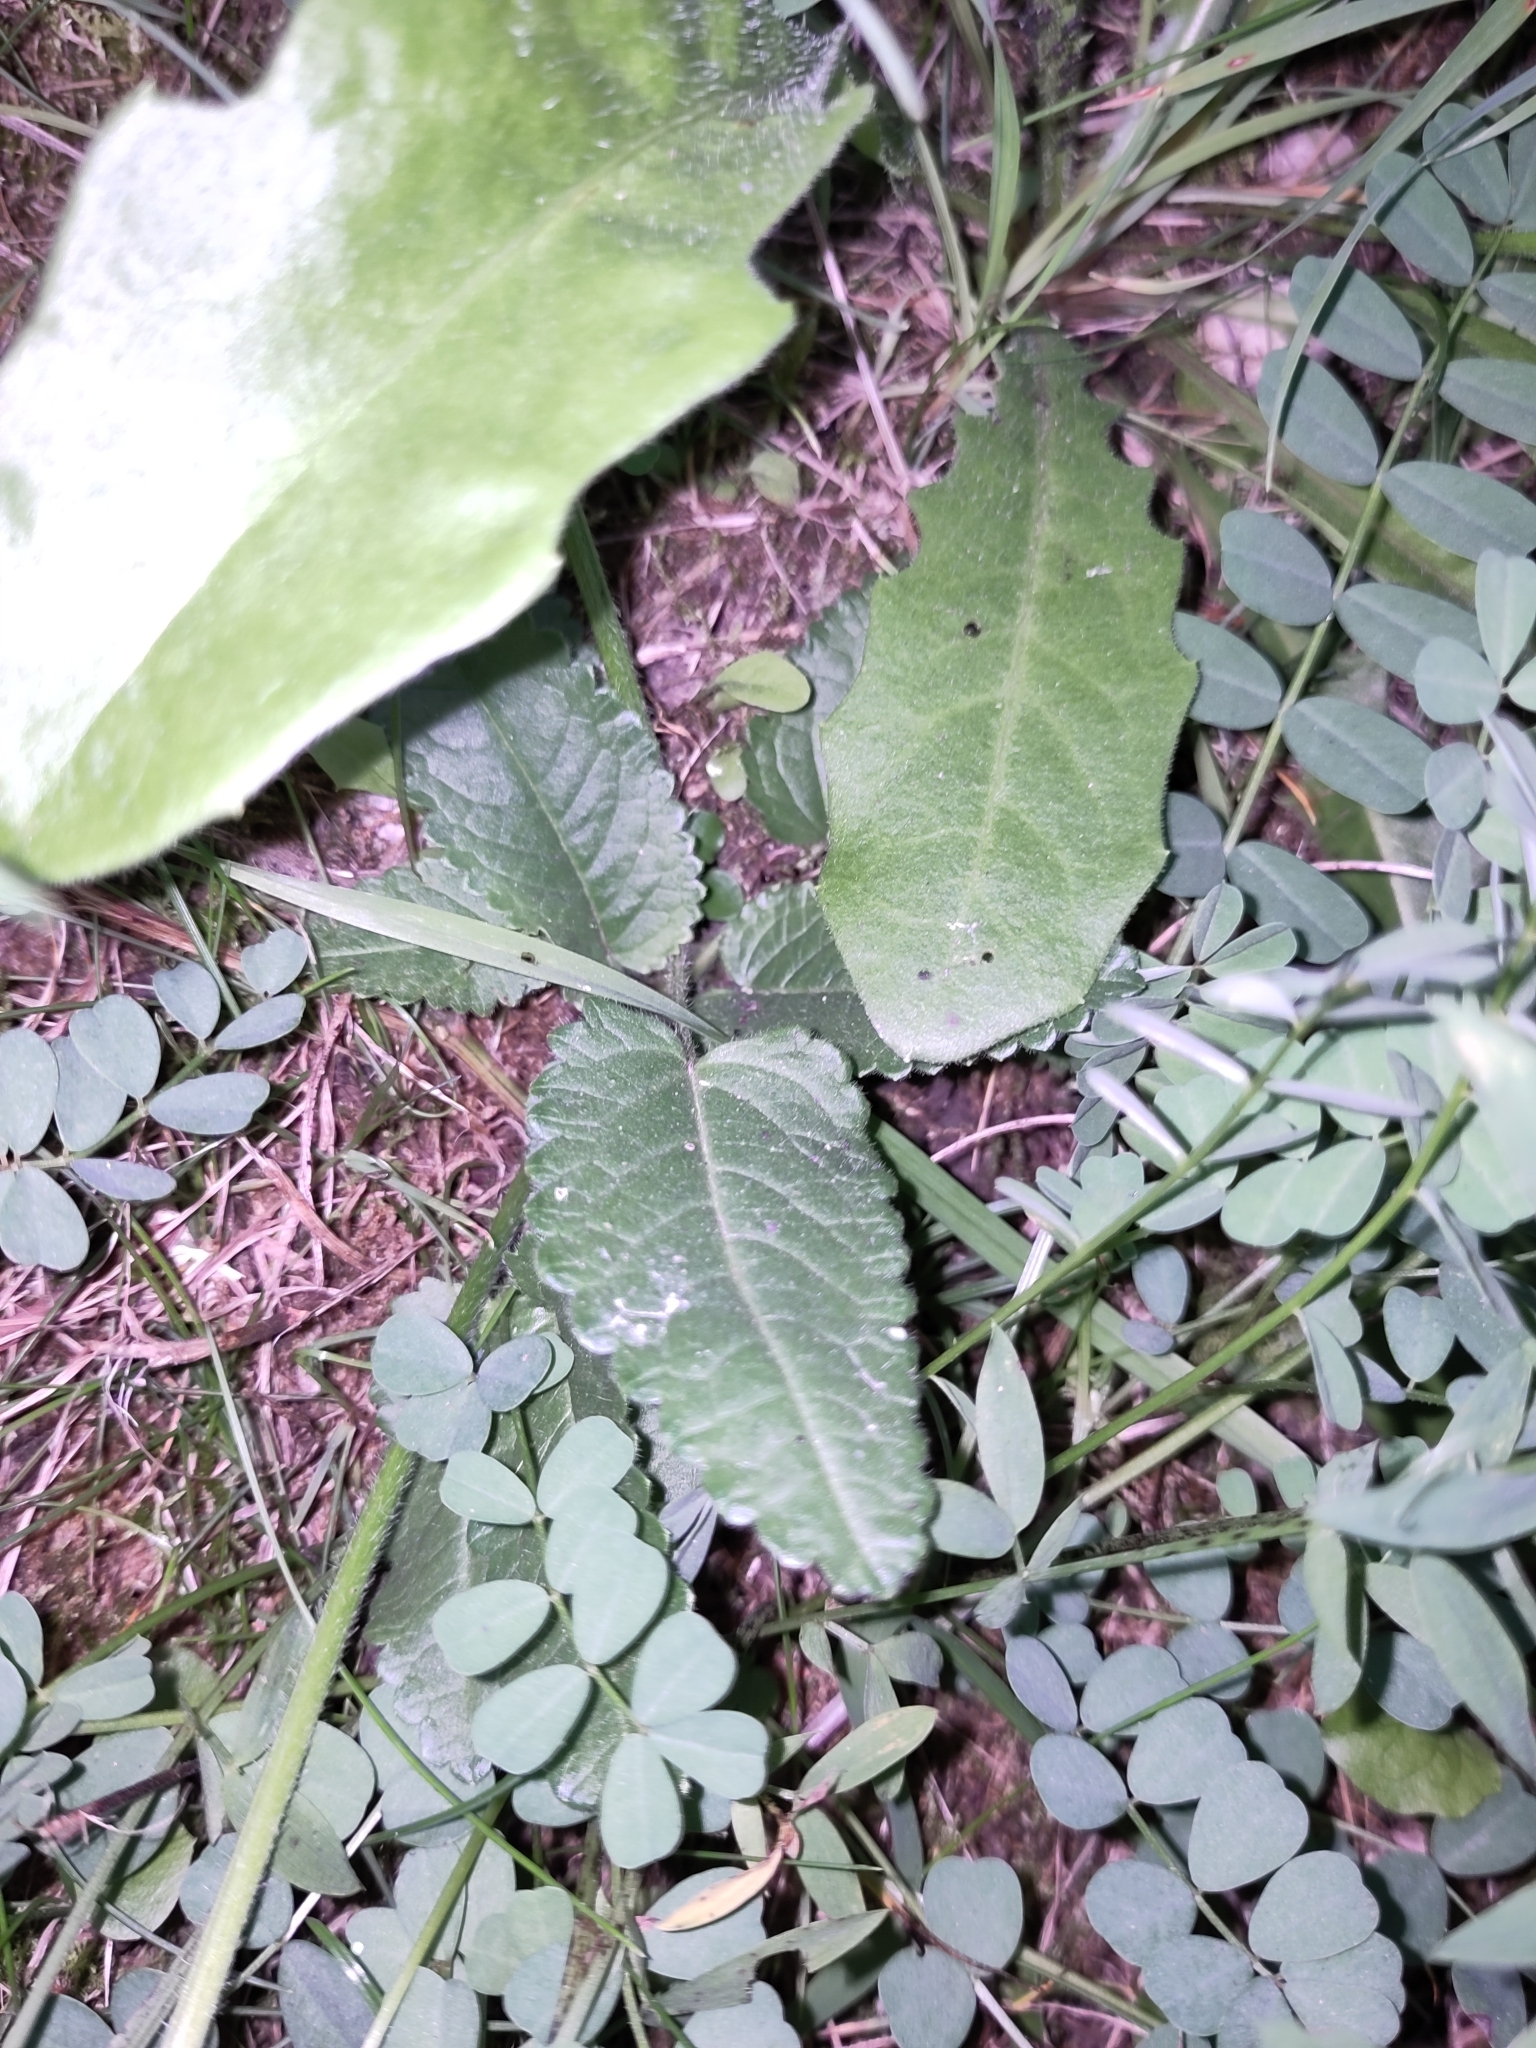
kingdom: Plantae
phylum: Tracheophyta
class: Magnoliopsida
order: Lamiales
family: Lamiaceae
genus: Betonica
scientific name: Betonica officinalis
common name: Bishop's-wort
